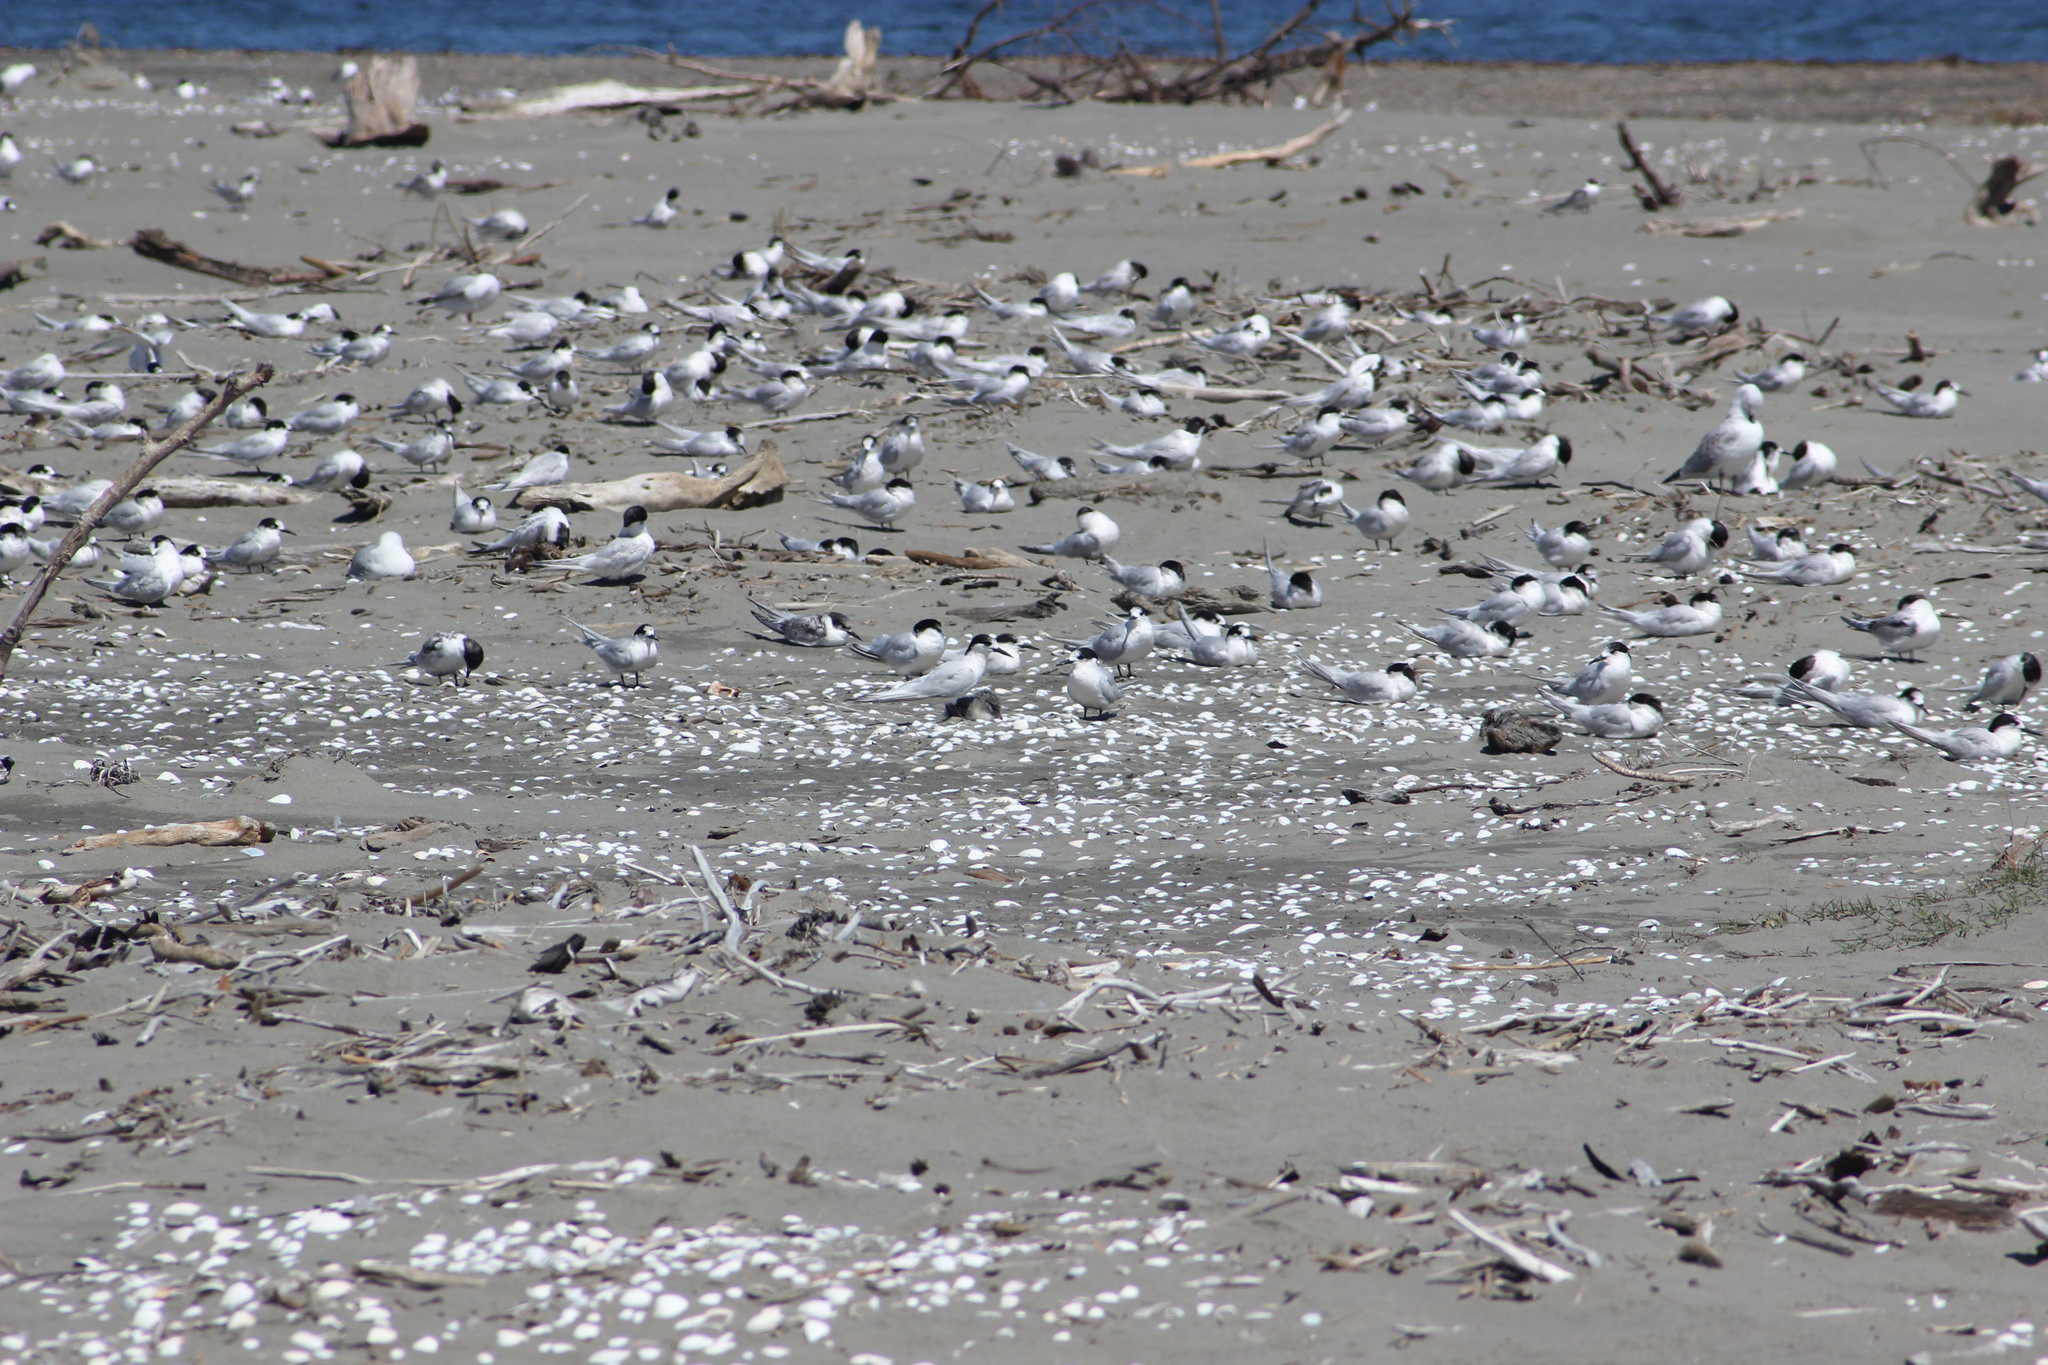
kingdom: Animalia
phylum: Chordata
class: Aves
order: Charadriiformes
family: Laridae
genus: Sterna
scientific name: Sterna striata
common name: White-fronted tern
